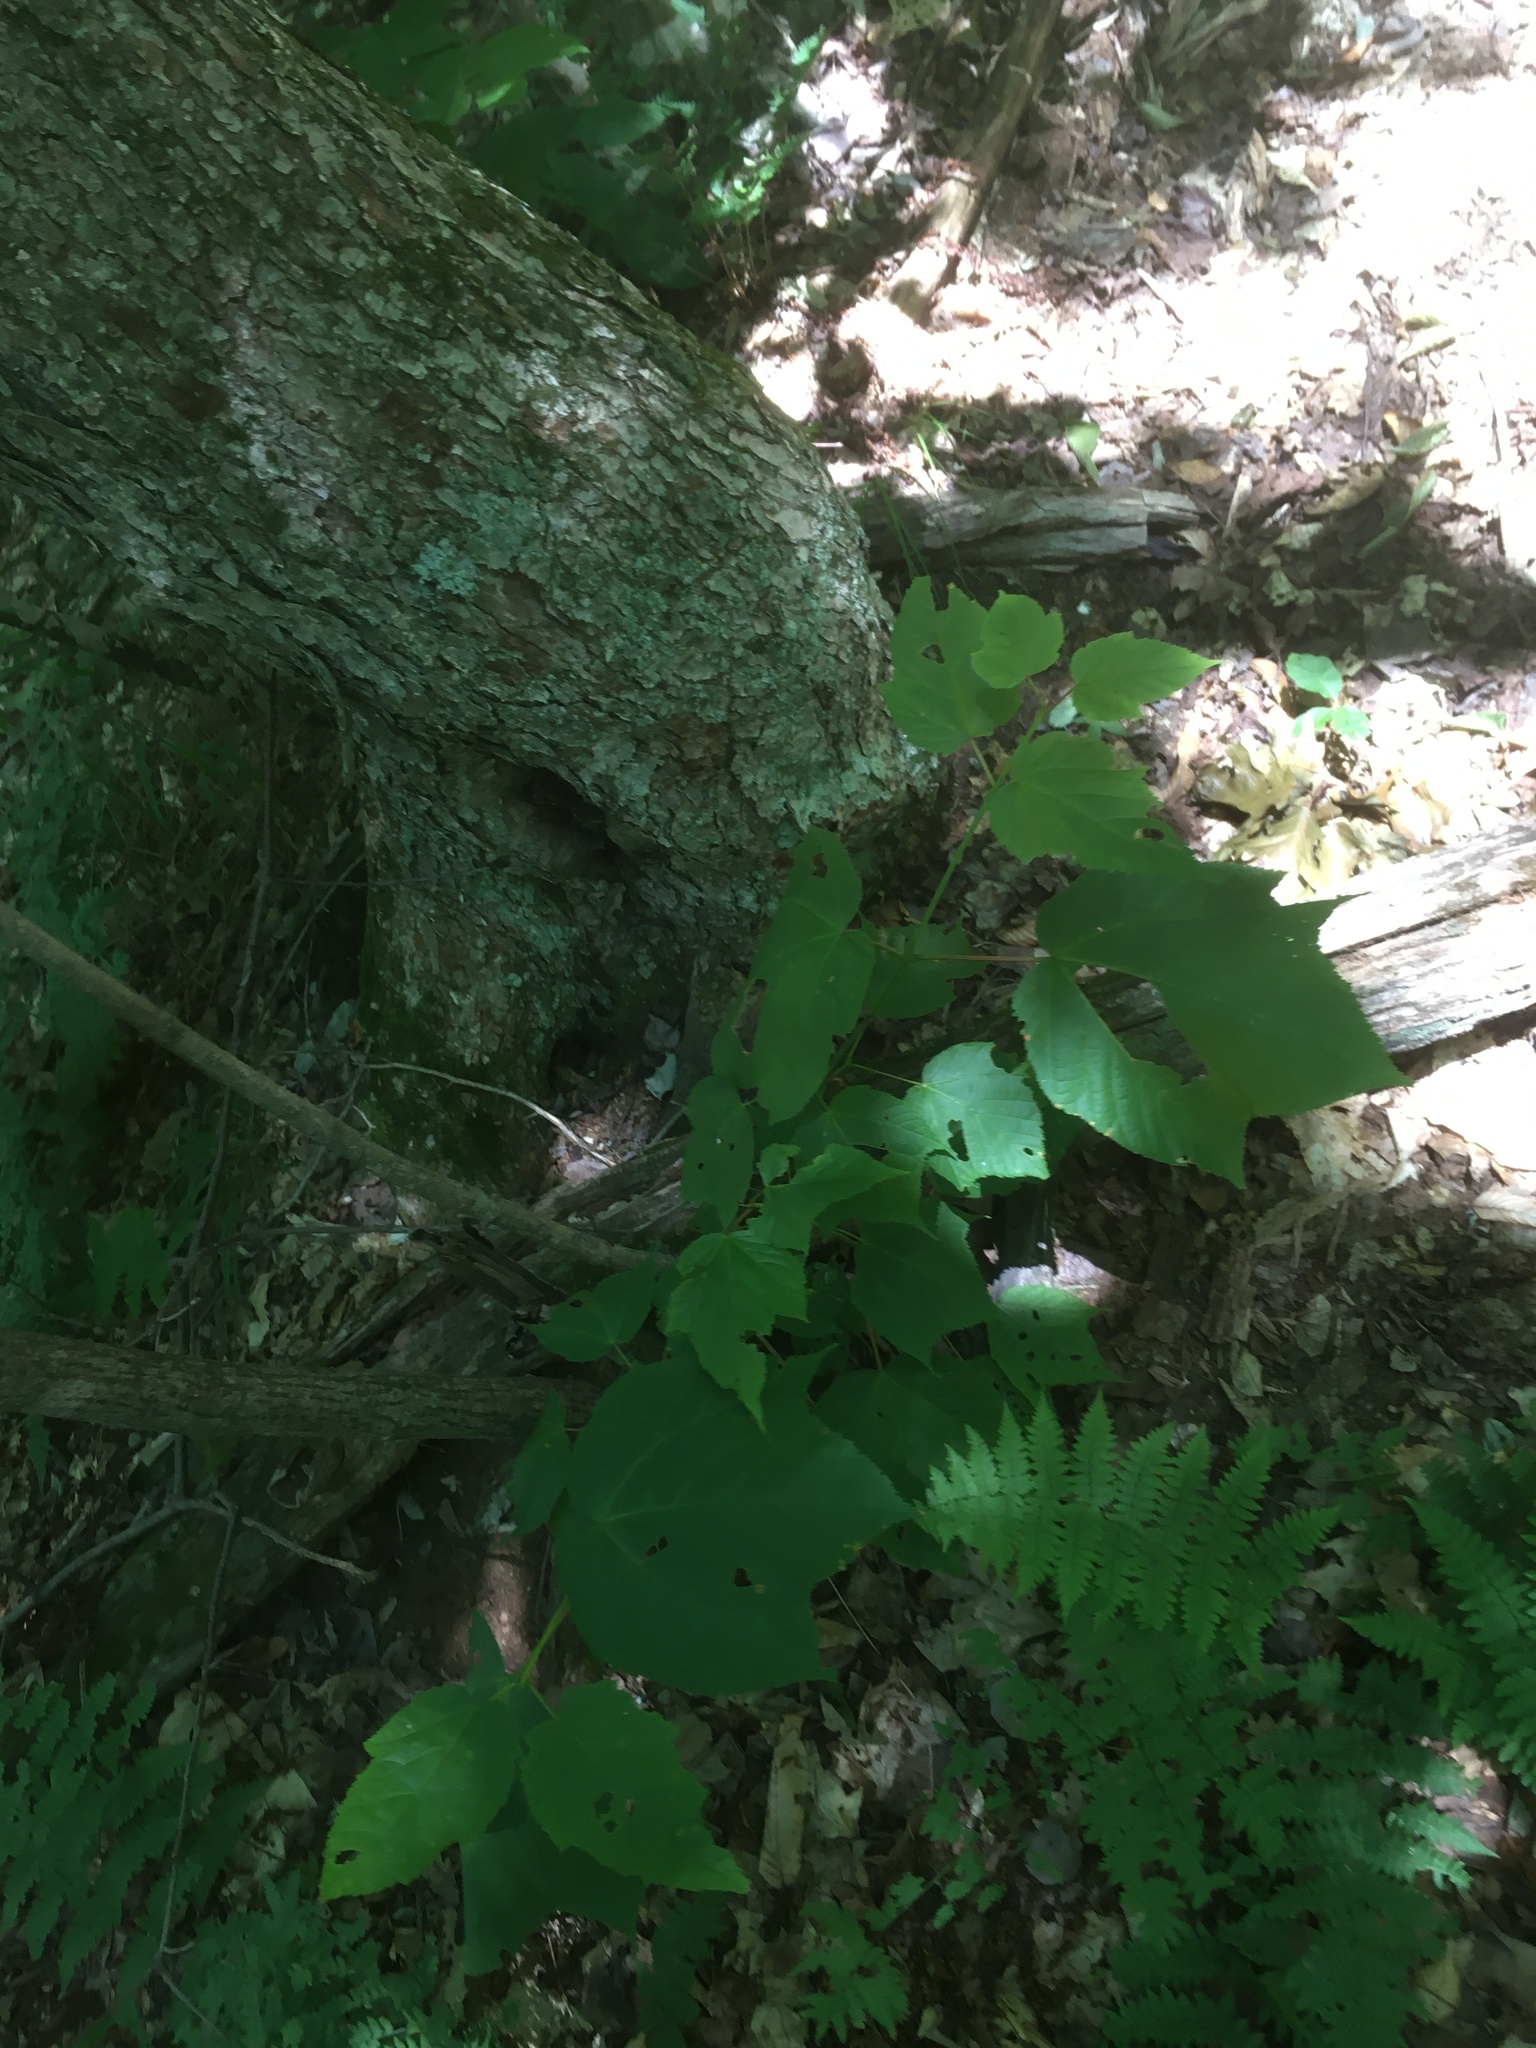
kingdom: Plantae
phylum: Tracheophyta
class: Magnoliopsida
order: Sapindales
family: Sapindaceae
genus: Acer
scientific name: Acer pensylvanicum
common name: Moosewood
